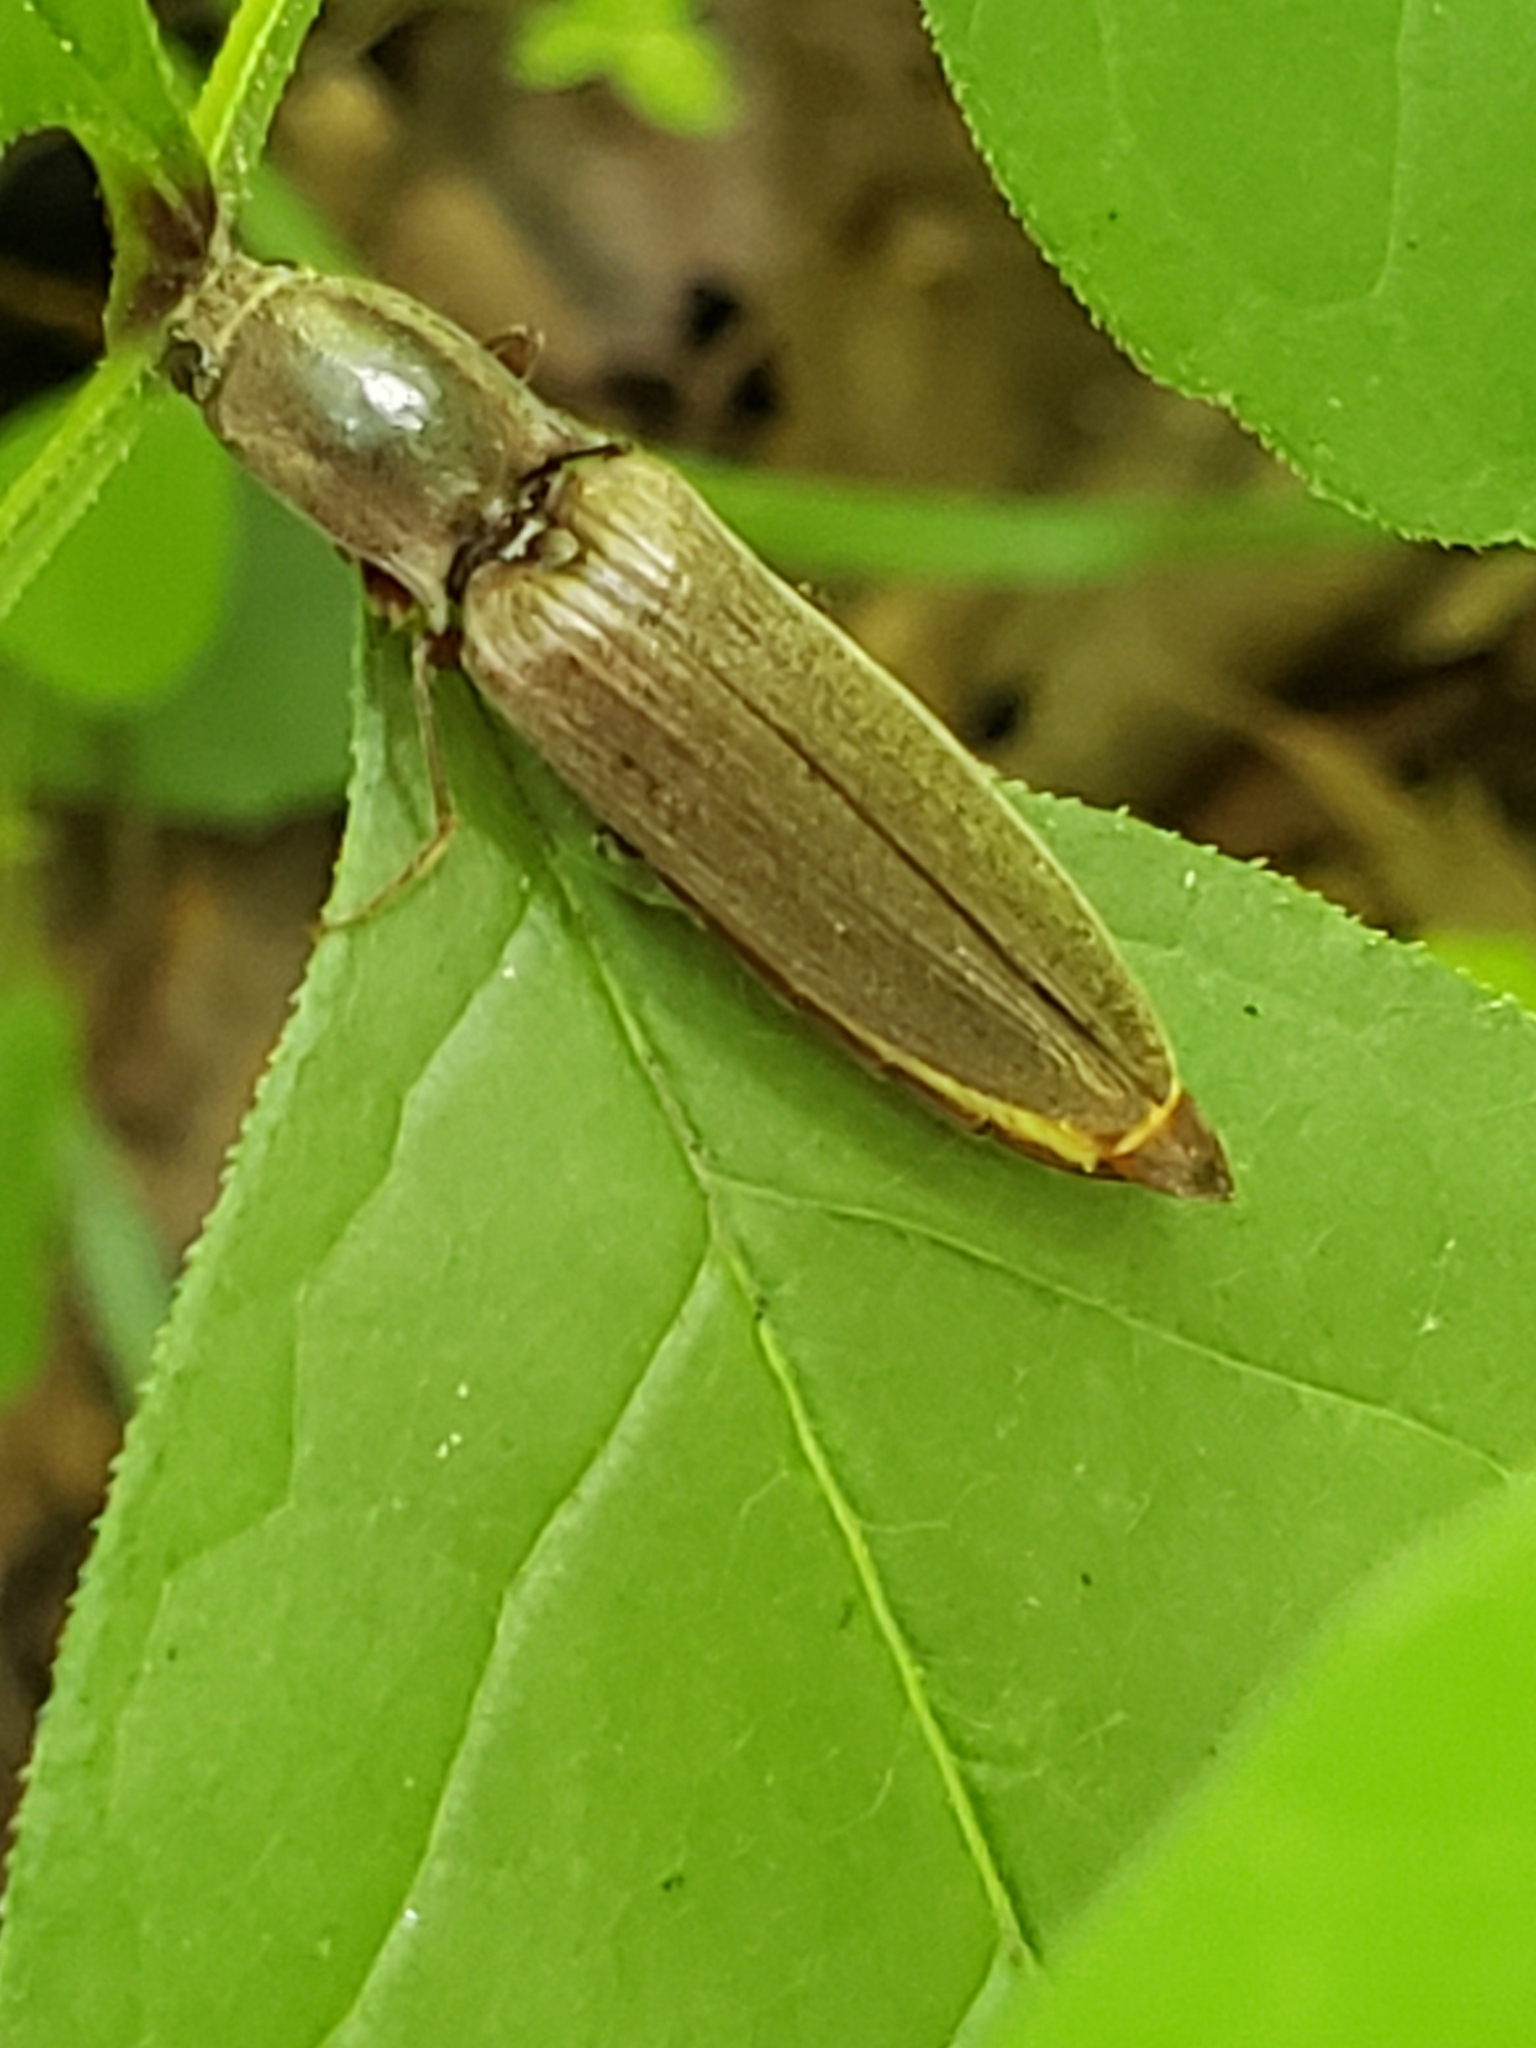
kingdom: Animalia
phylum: Arthropoda
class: Insecta
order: Coleoptera
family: Elateridae
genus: Proludius
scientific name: Proludius pyrros
